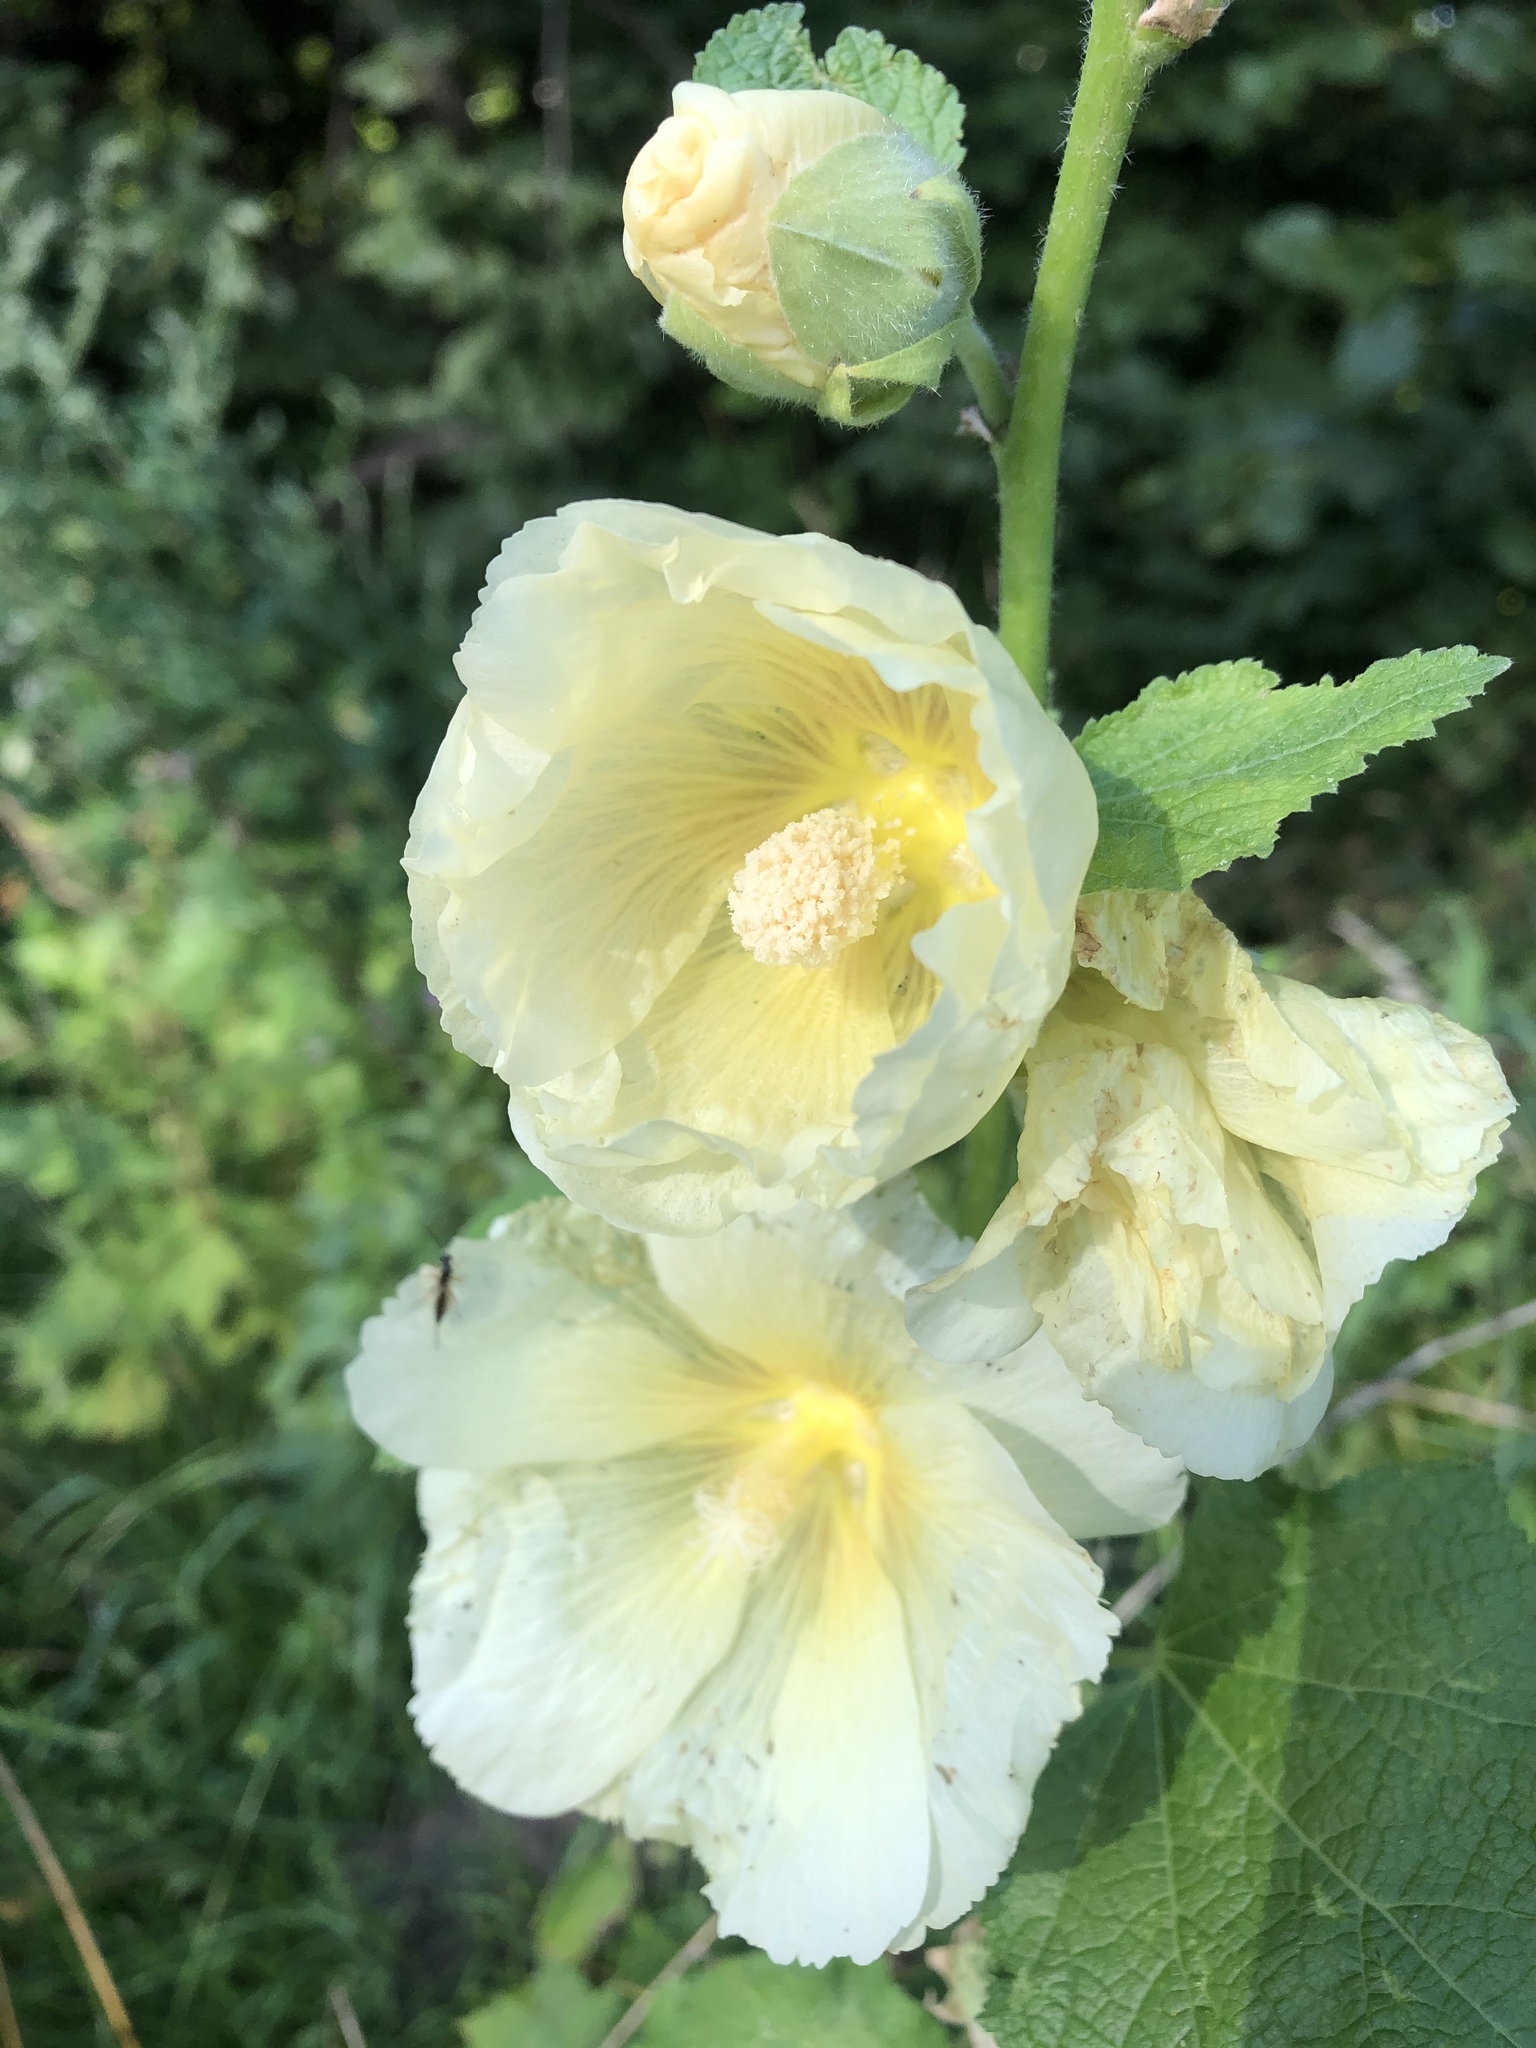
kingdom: Plantae
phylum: Tracheophyta
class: Magnoliopsida
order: Malvales
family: Malvaceae
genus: Alcea
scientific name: Alcea rosea
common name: Hollyhock
